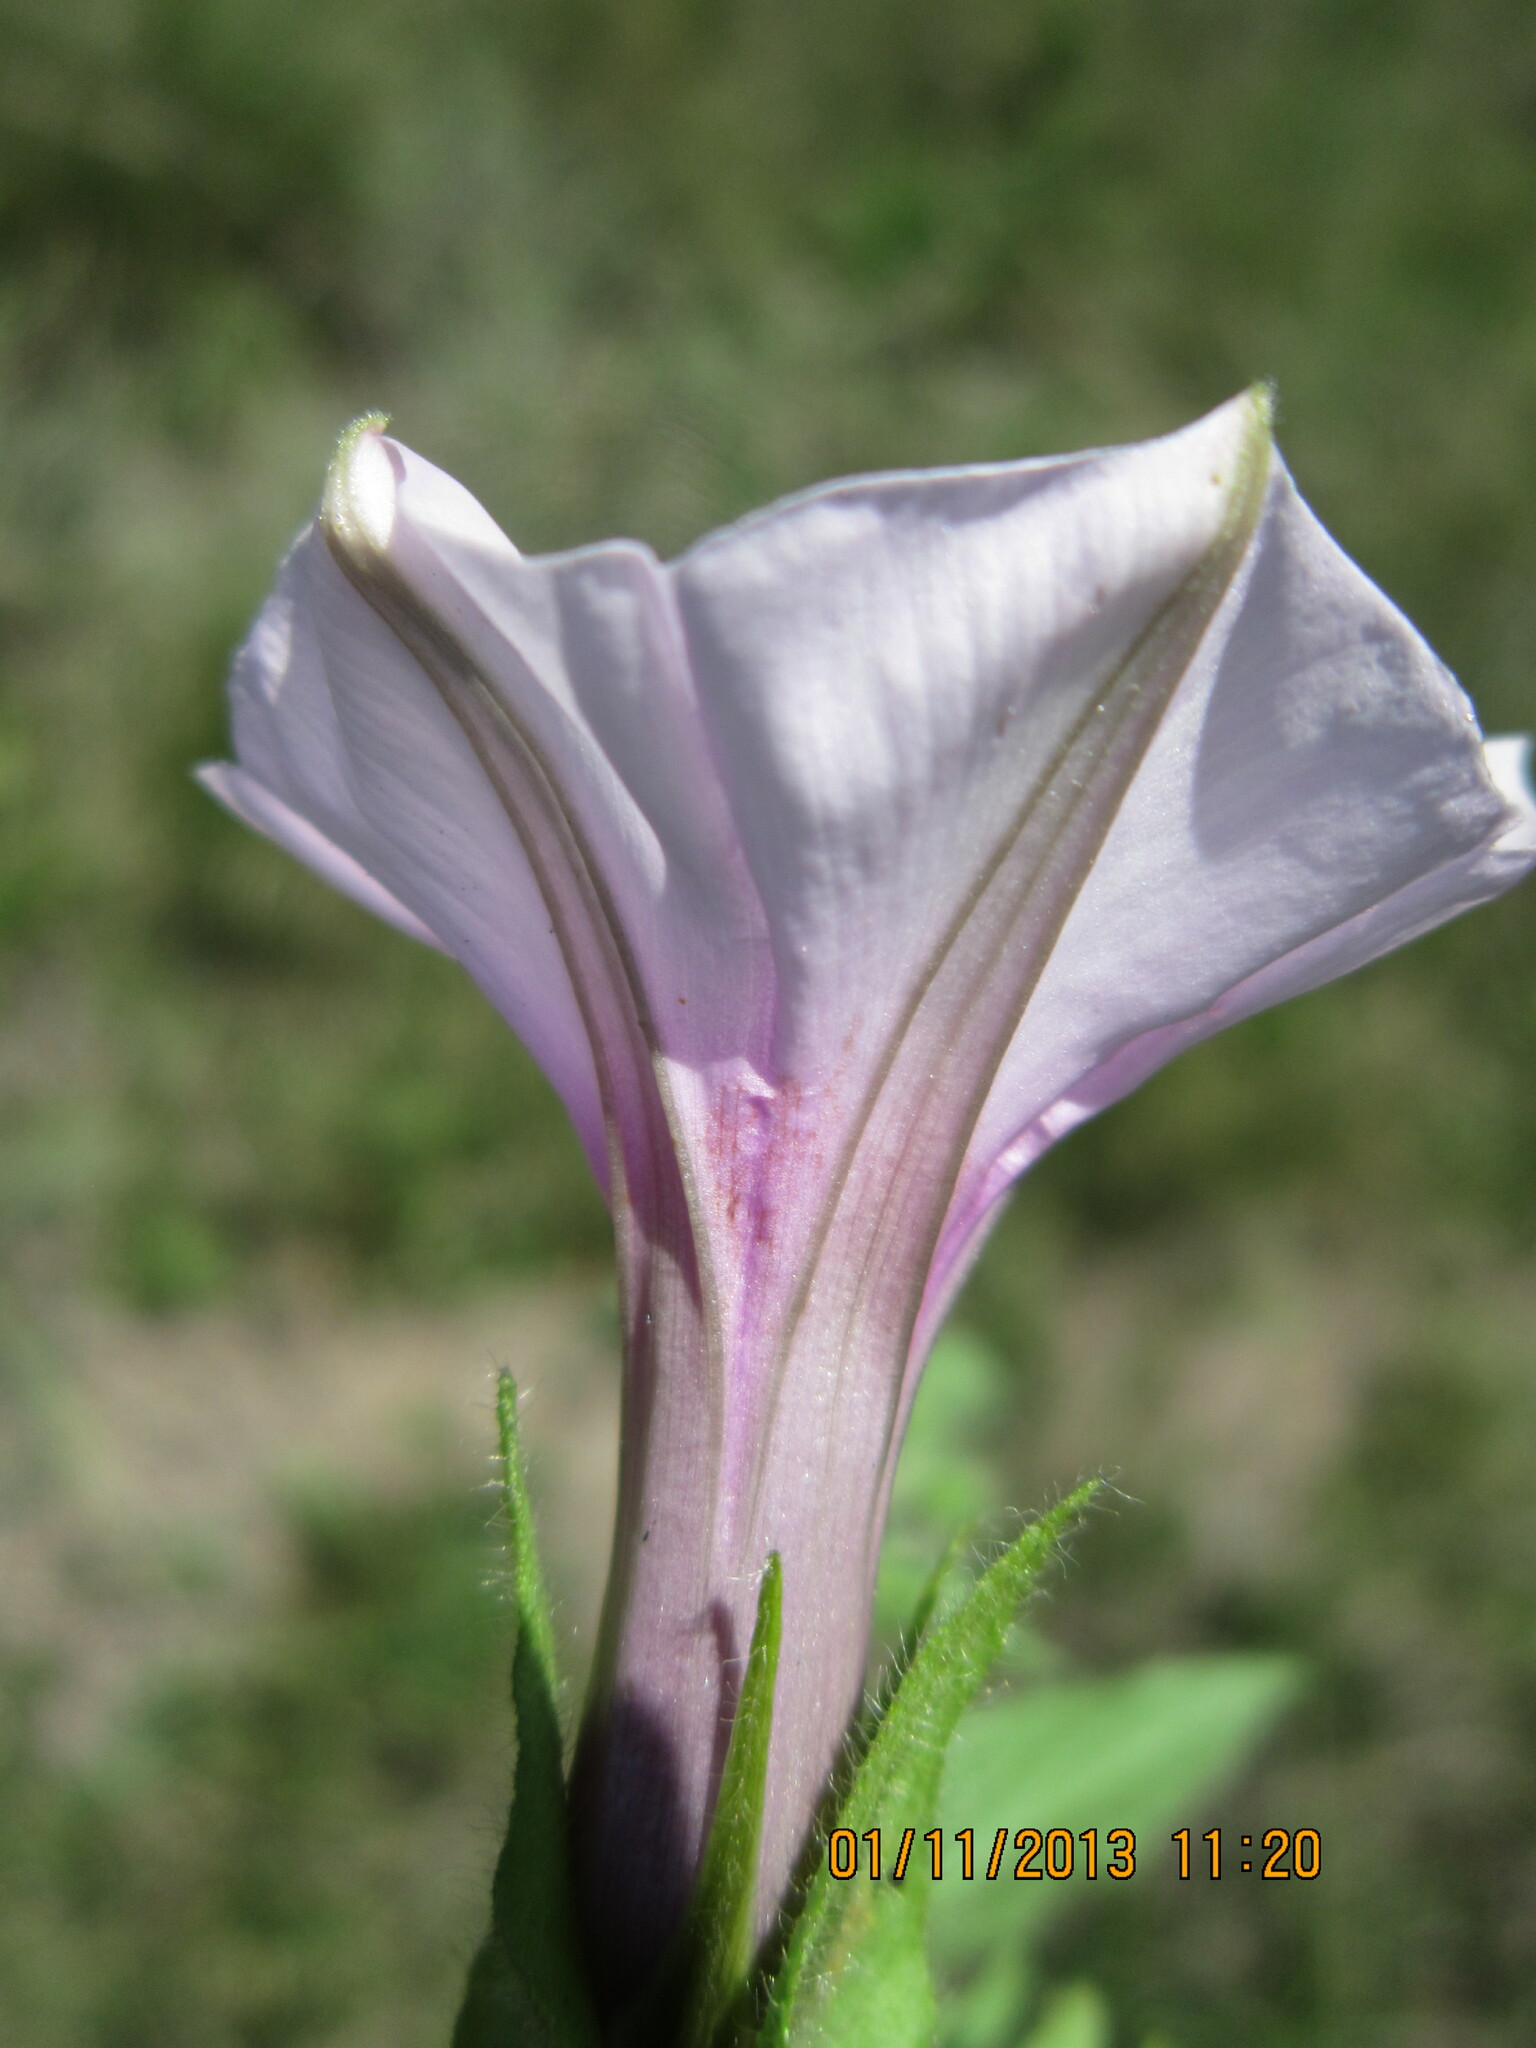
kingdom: Plantae
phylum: Tracheophyta
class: Magnoliopsida
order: Solanales
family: Convolvulaceae
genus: Ipomoea
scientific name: Ipomoea crassipes
